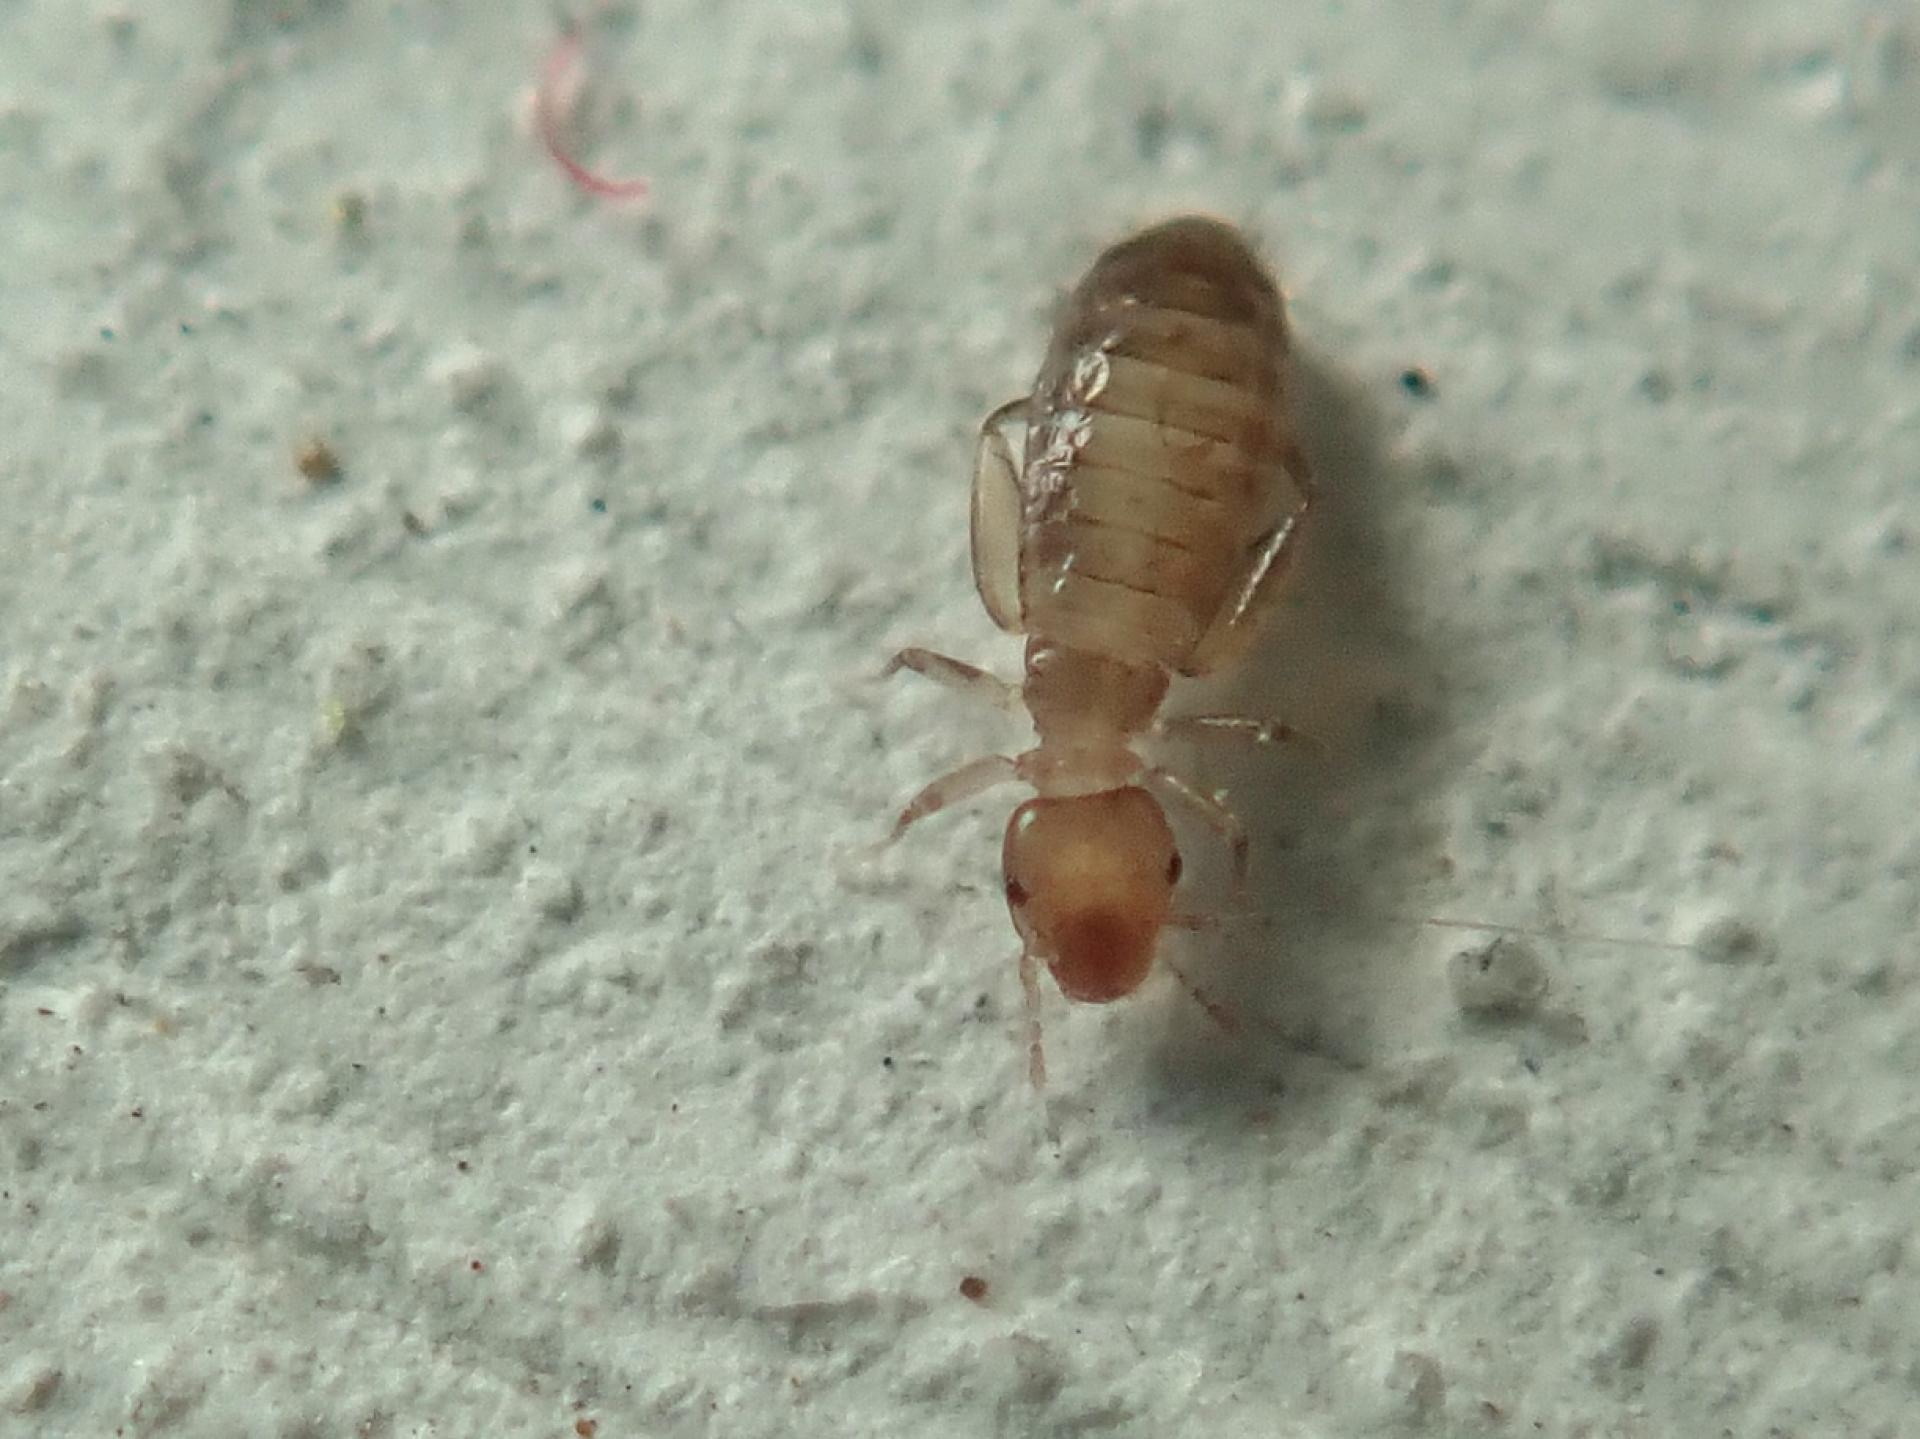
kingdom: Animalia
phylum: Arthropoda
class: Insecta
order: Psocodea
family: Liposcelididae
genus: Liposcelis
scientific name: Liposcelis bostrychophila
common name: Bark lice
